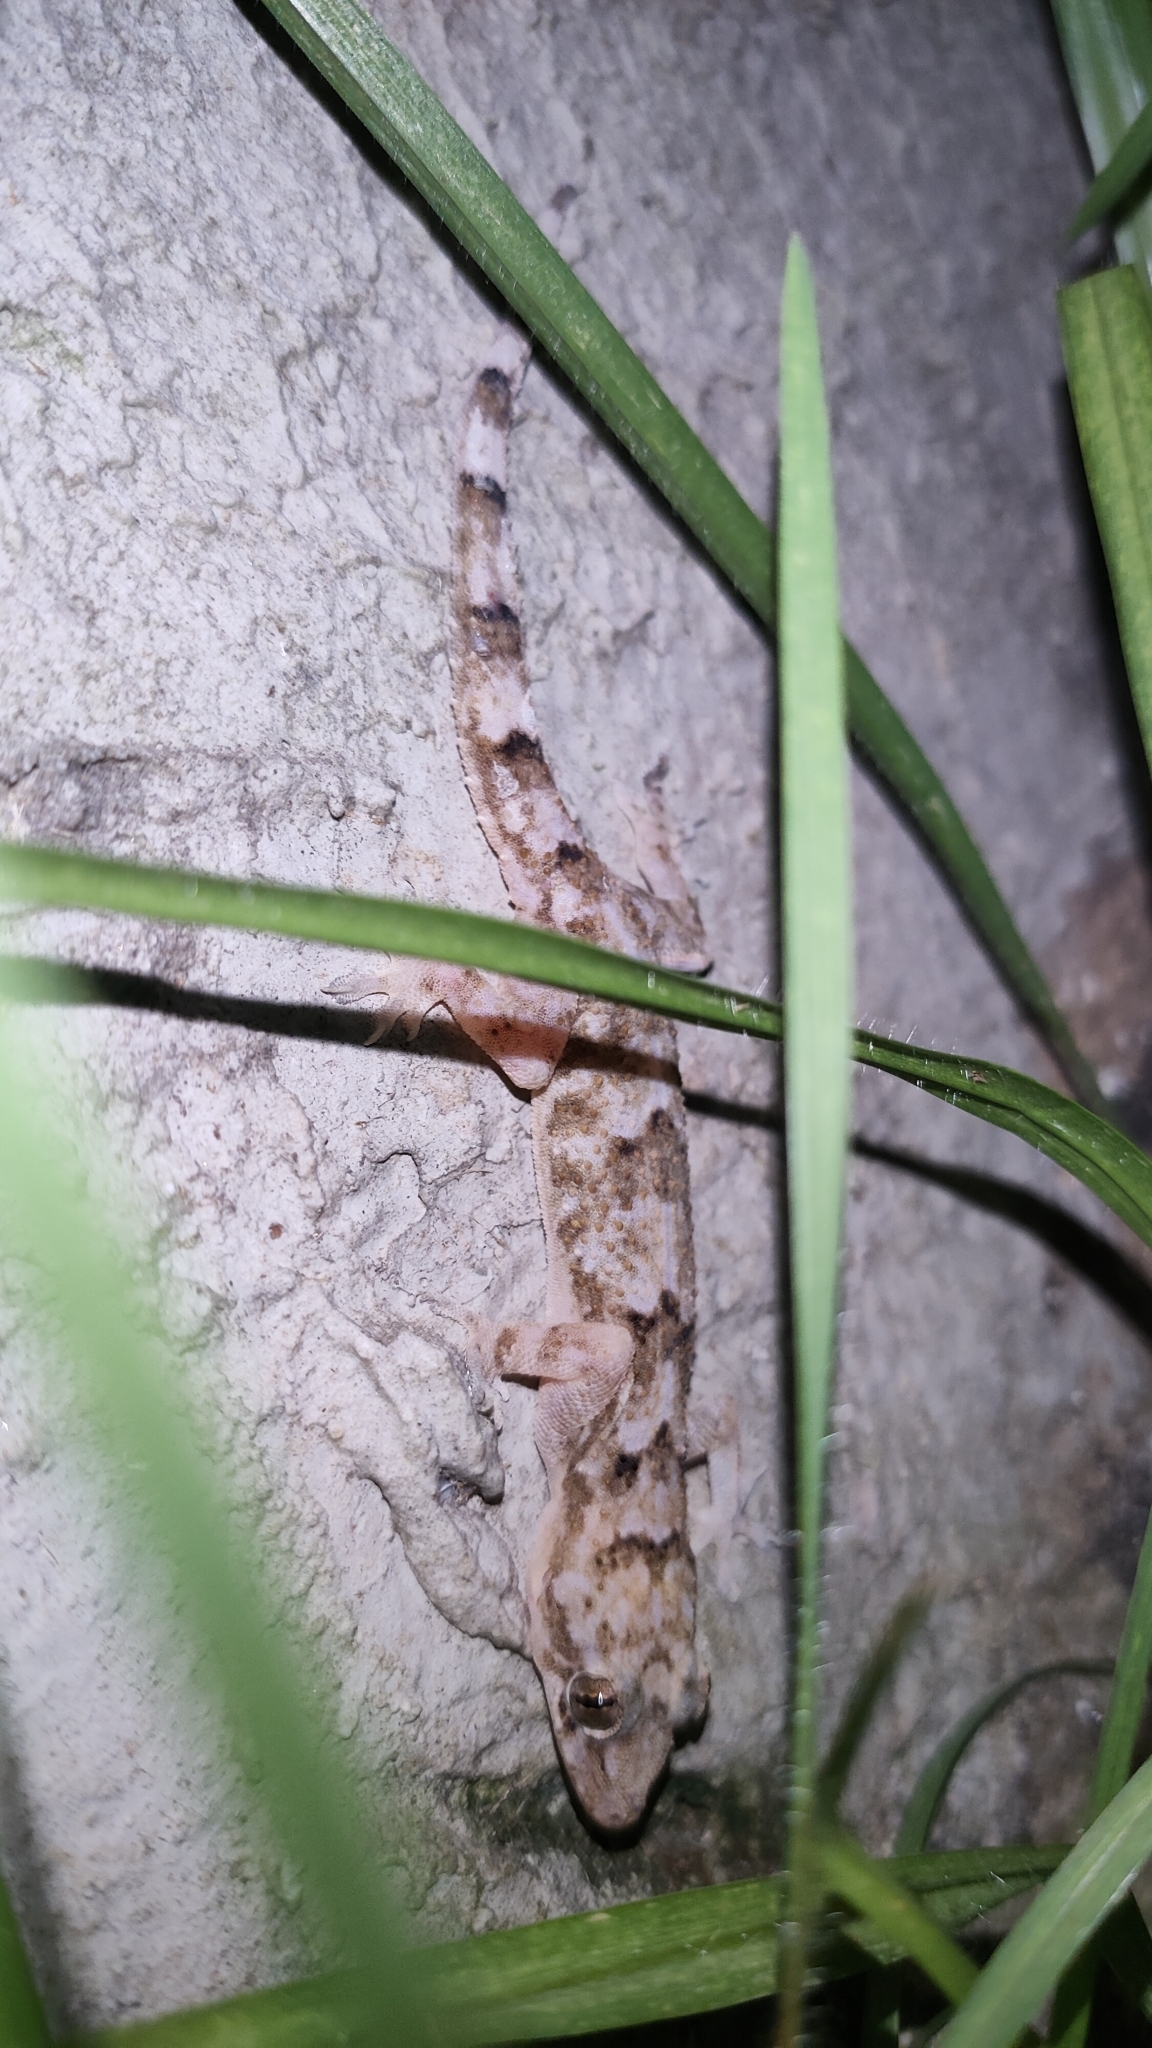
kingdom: Animalia
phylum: Chordata
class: Squamata
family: Gekkonidae
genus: Hemidactylus
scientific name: Hemidactylus mabouia
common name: House gecko
